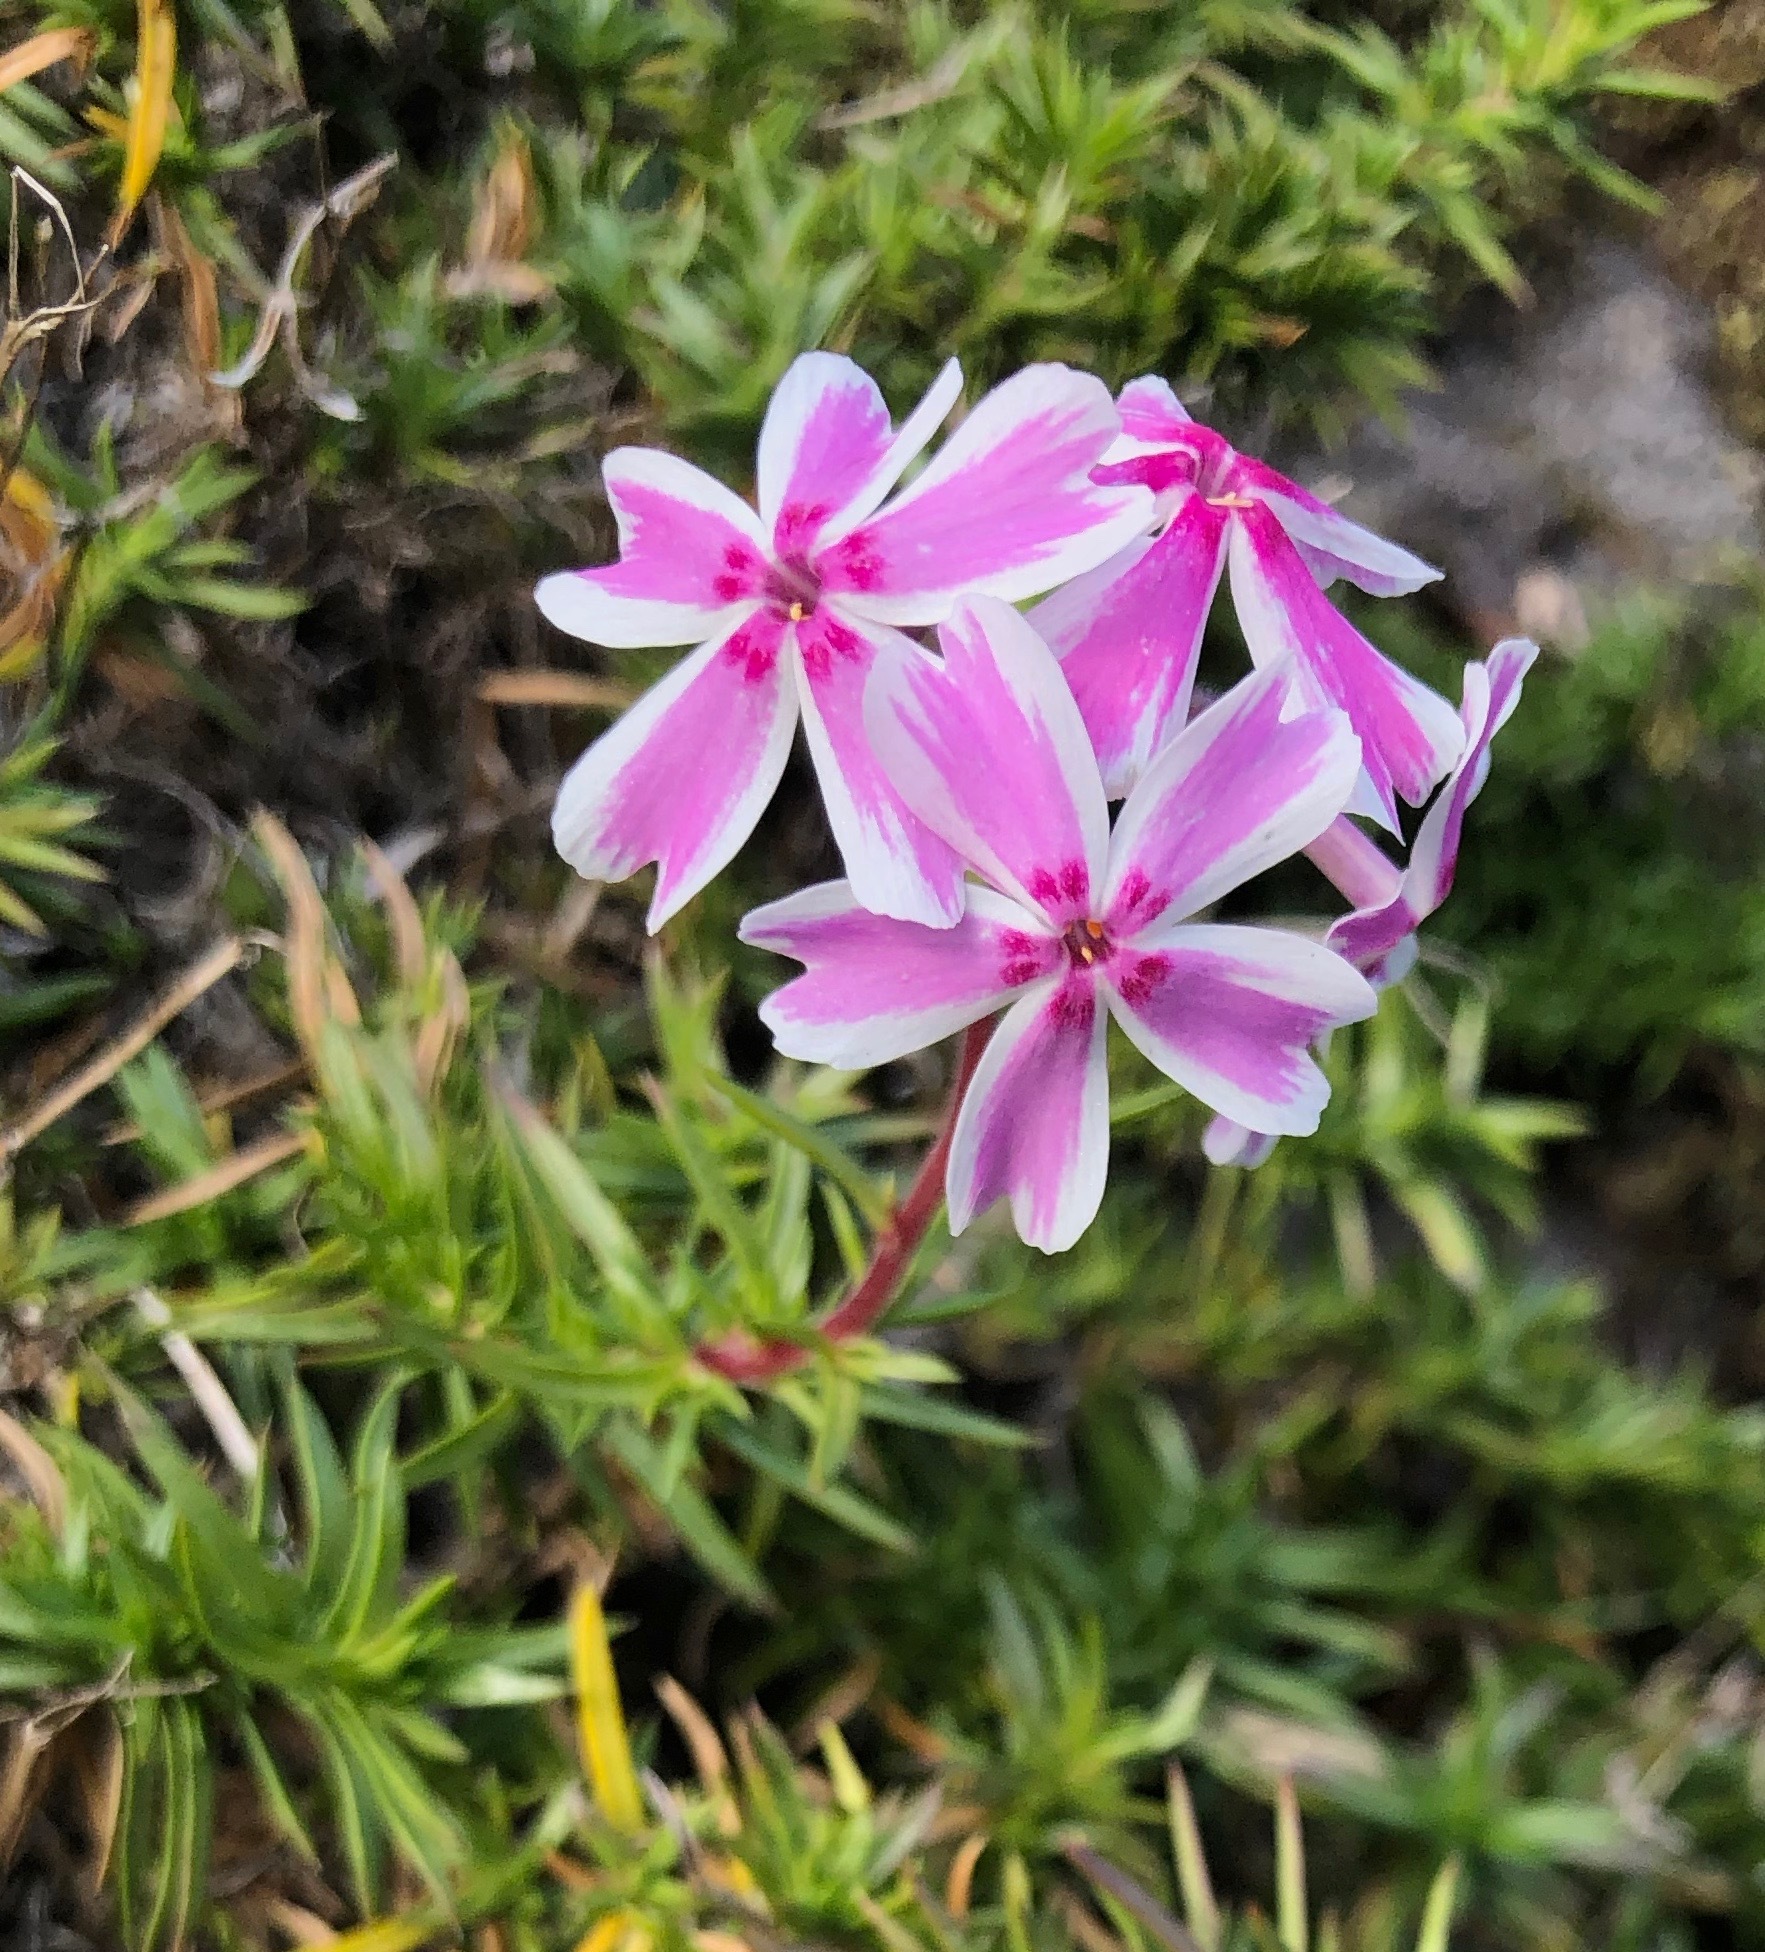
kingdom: Plantae
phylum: Tracheophyta
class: Magnoliopsida
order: Ericales
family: Polemoniaceae
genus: Phlox
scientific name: Phlox subulata
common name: Moss phlox
